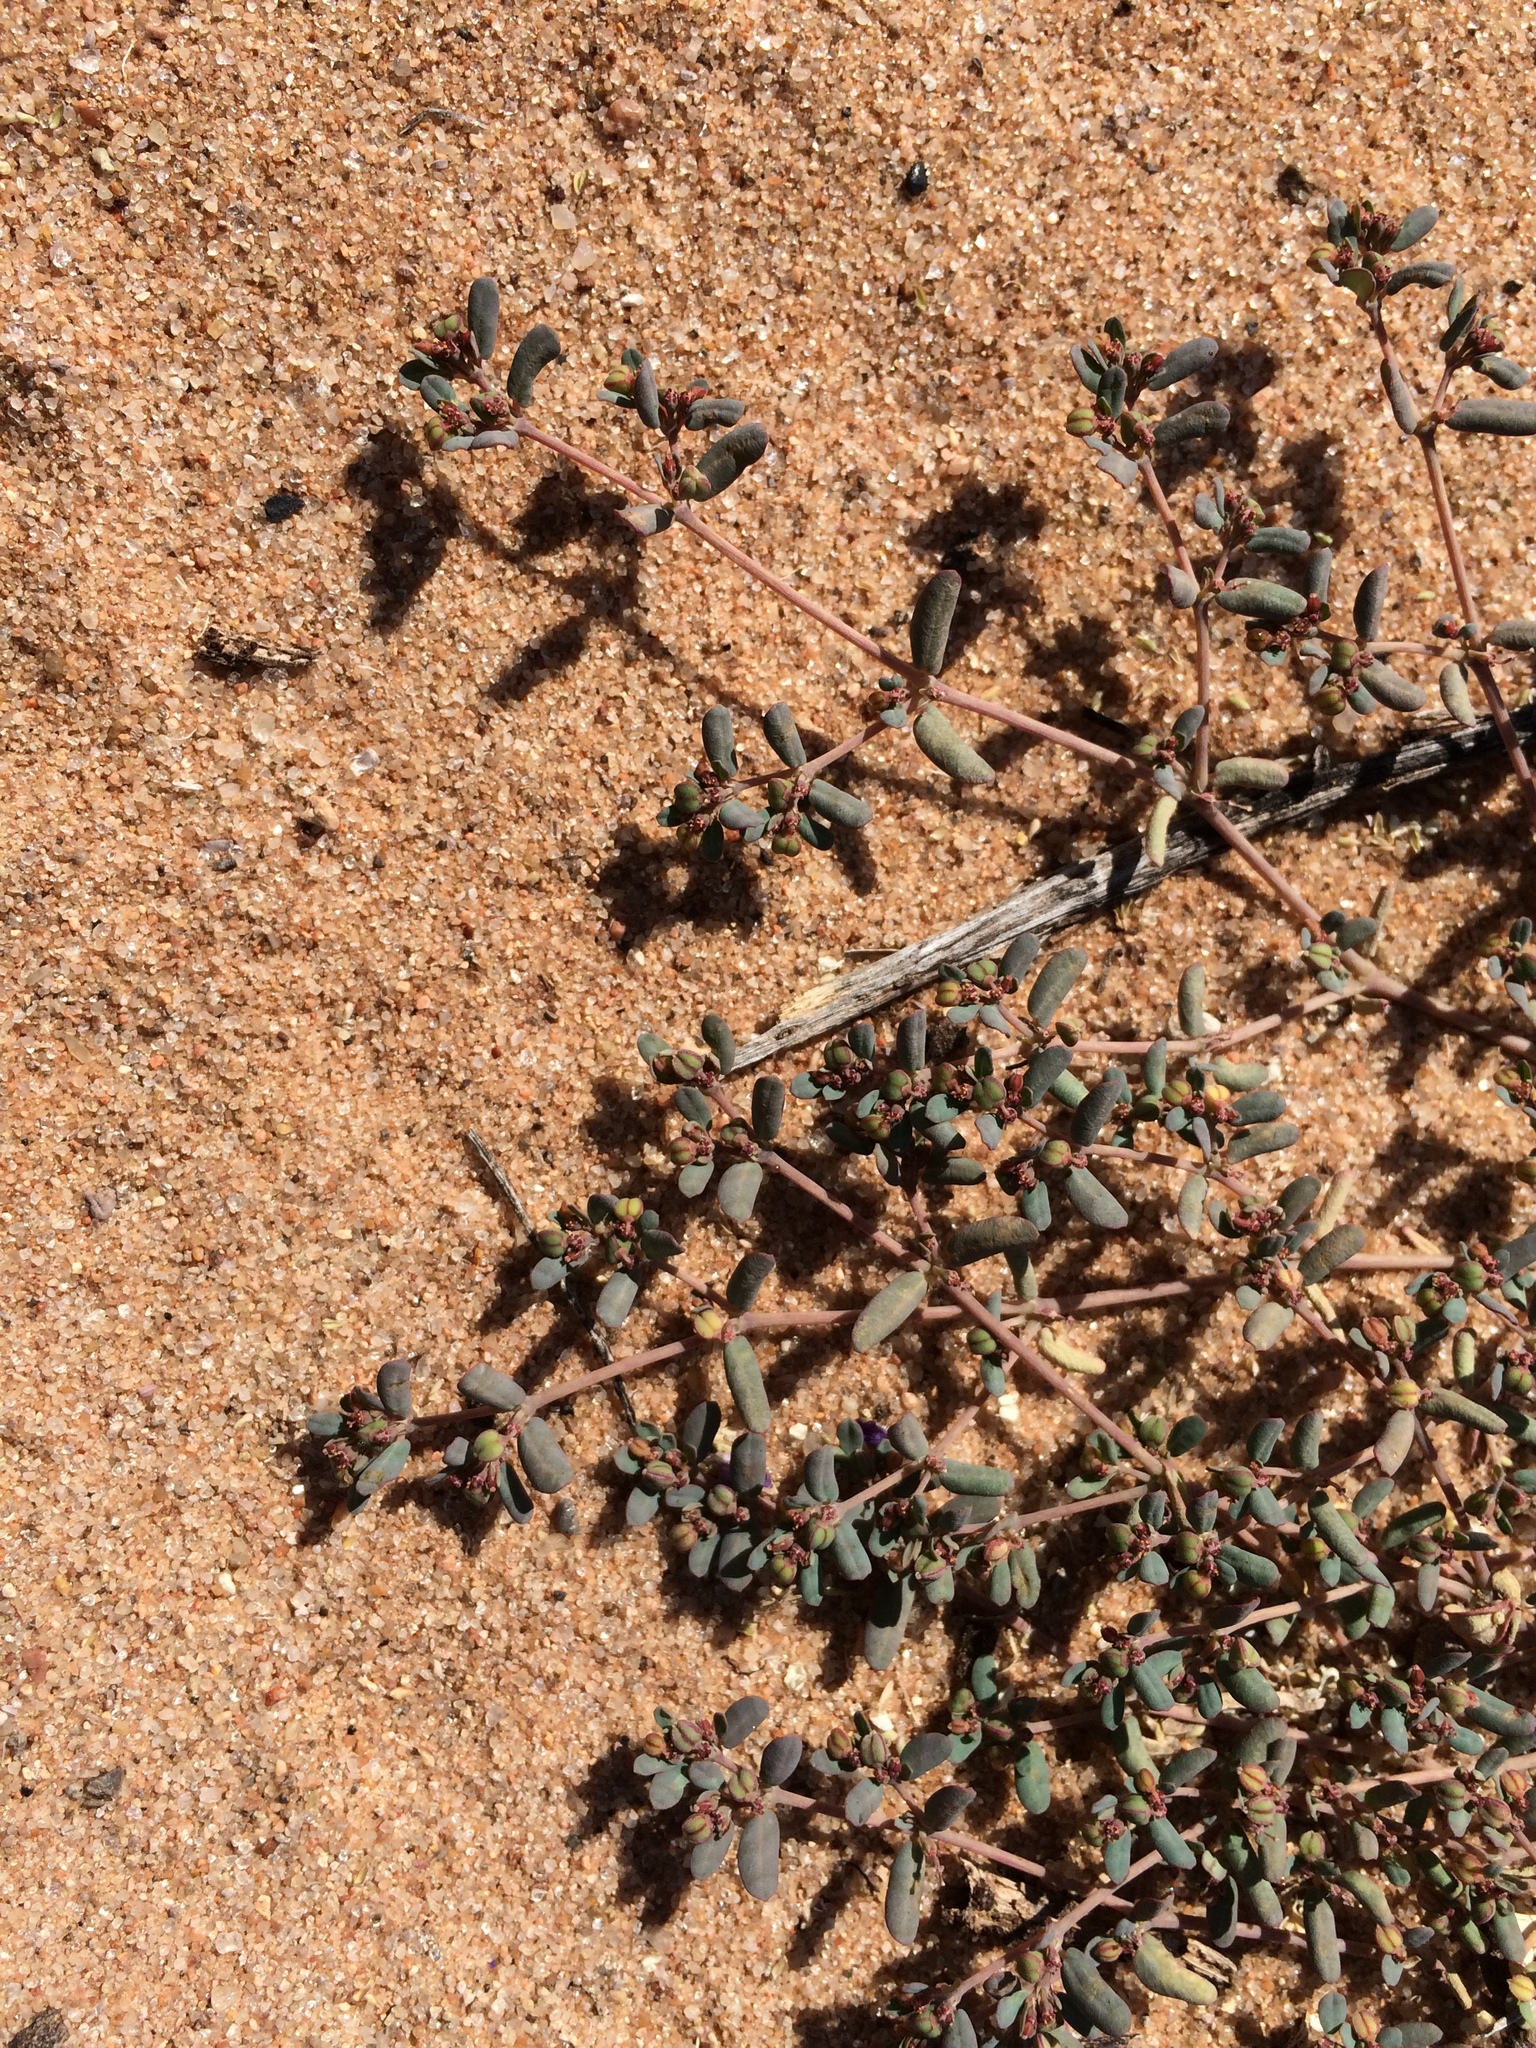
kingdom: Plantae
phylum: Tracheophyta
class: Magnoliopsida
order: Malpighiales
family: Euphorbiaceae
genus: Euphorbia
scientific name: Euphorbia golondrina
